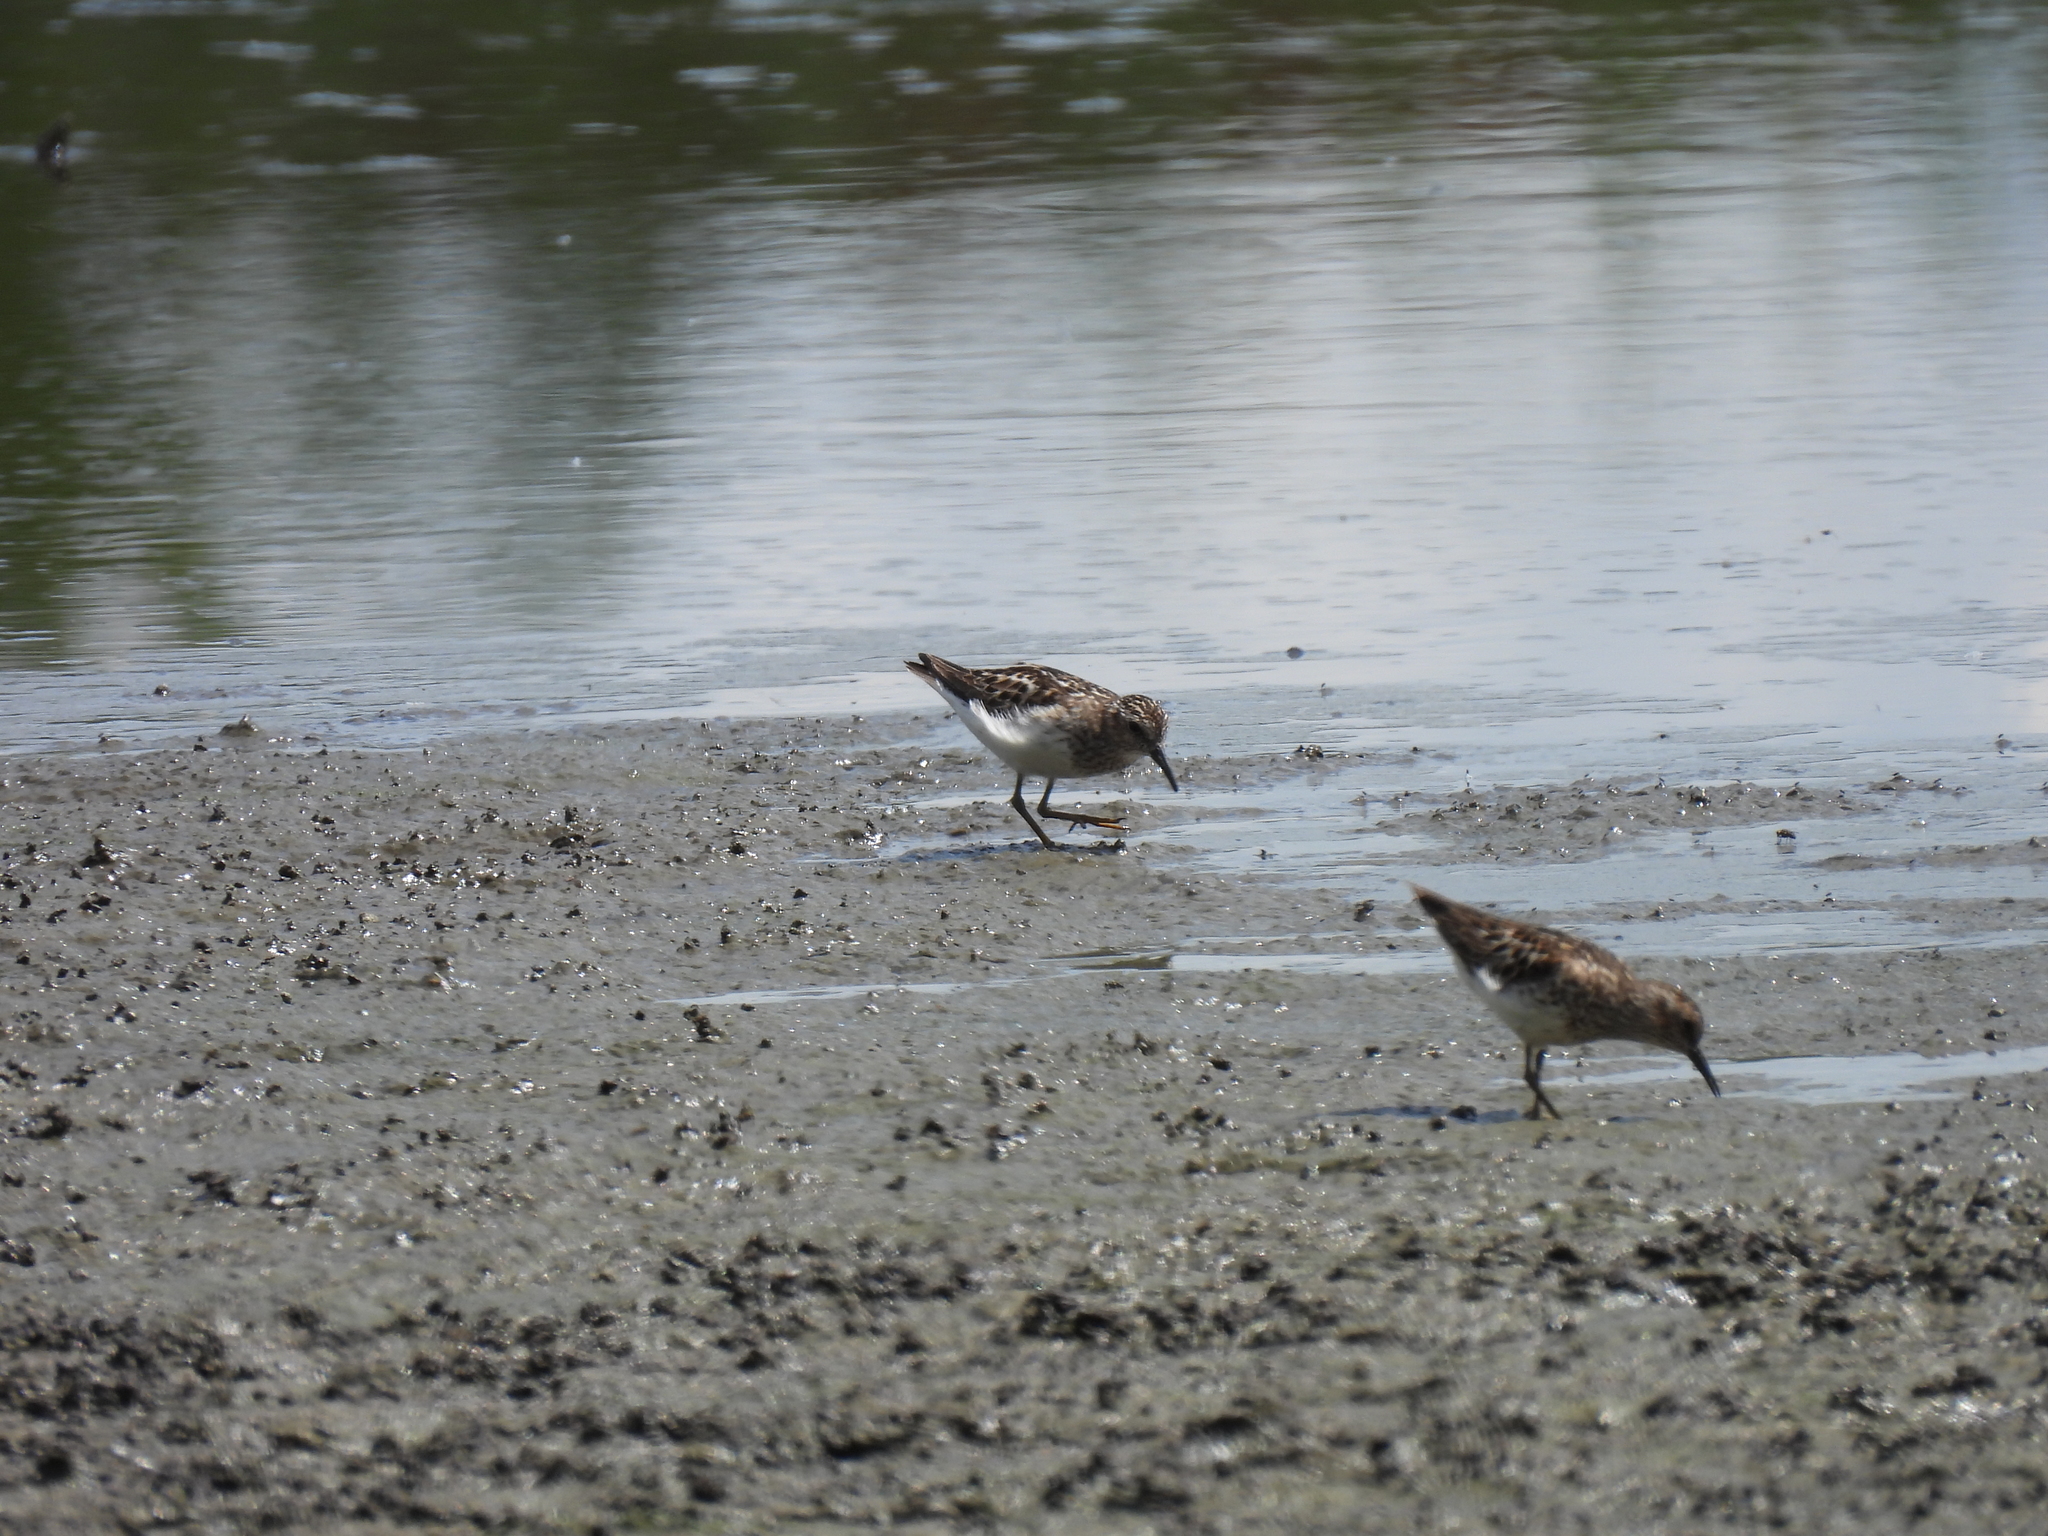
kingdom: Animalia
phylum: Chordata
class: Aves
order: Charadriiformes
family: Scolopacidae
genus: Calidris
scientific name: Calidris minutilla
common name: Least sandpiper
